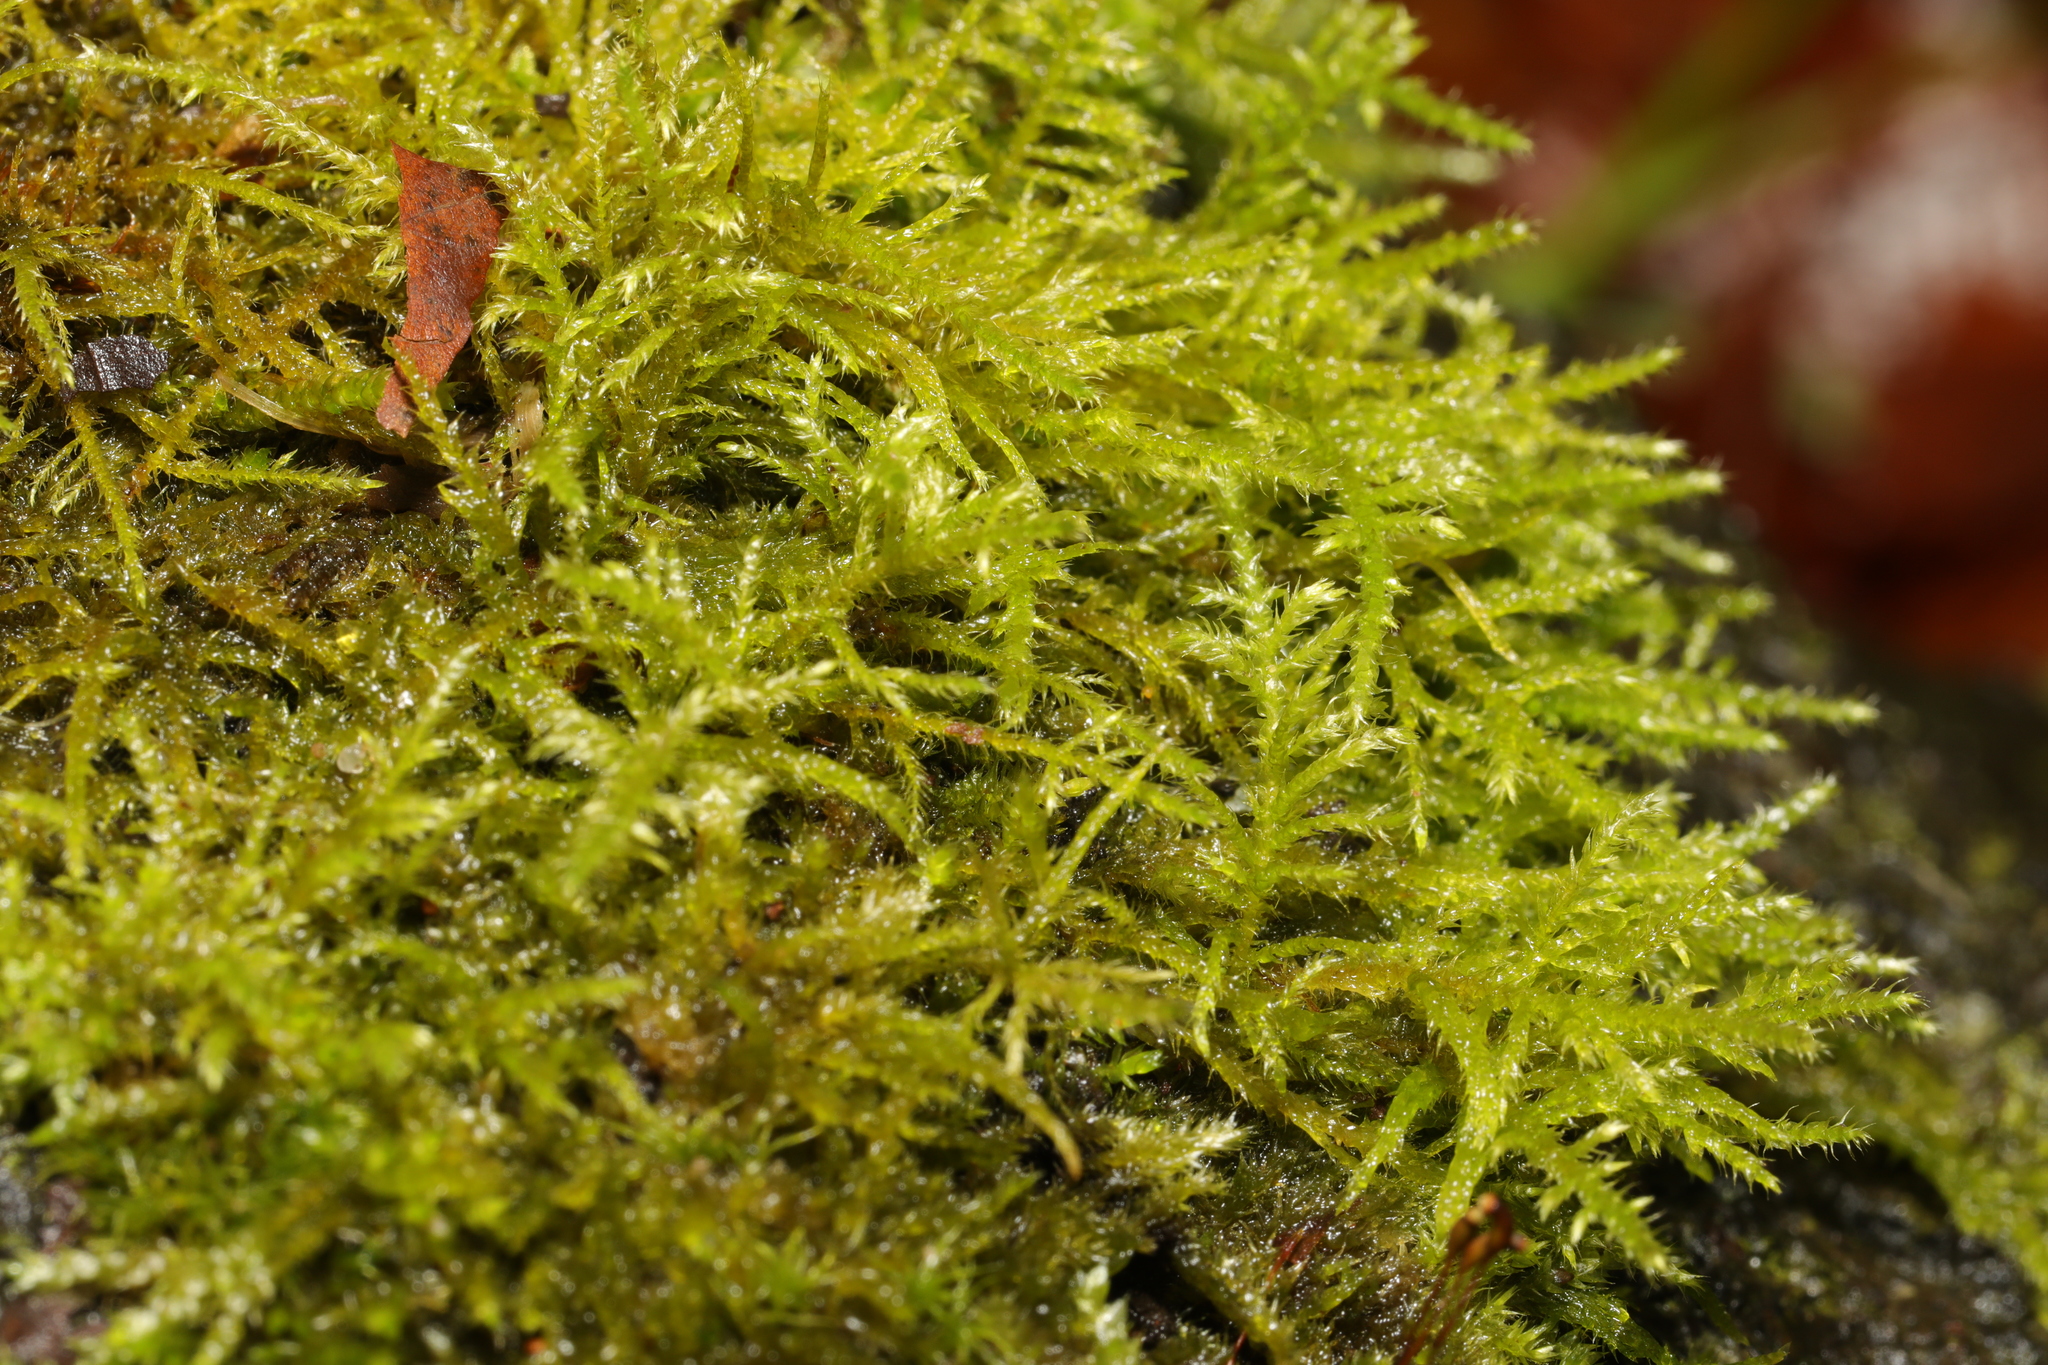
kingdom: Plantae
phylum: Bryophyta
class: Bryopsida
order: Hypnales
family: Brachytheciaceae
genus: Kindbergia
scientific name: Kindbergia praelonga
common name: Slender beaked moss
